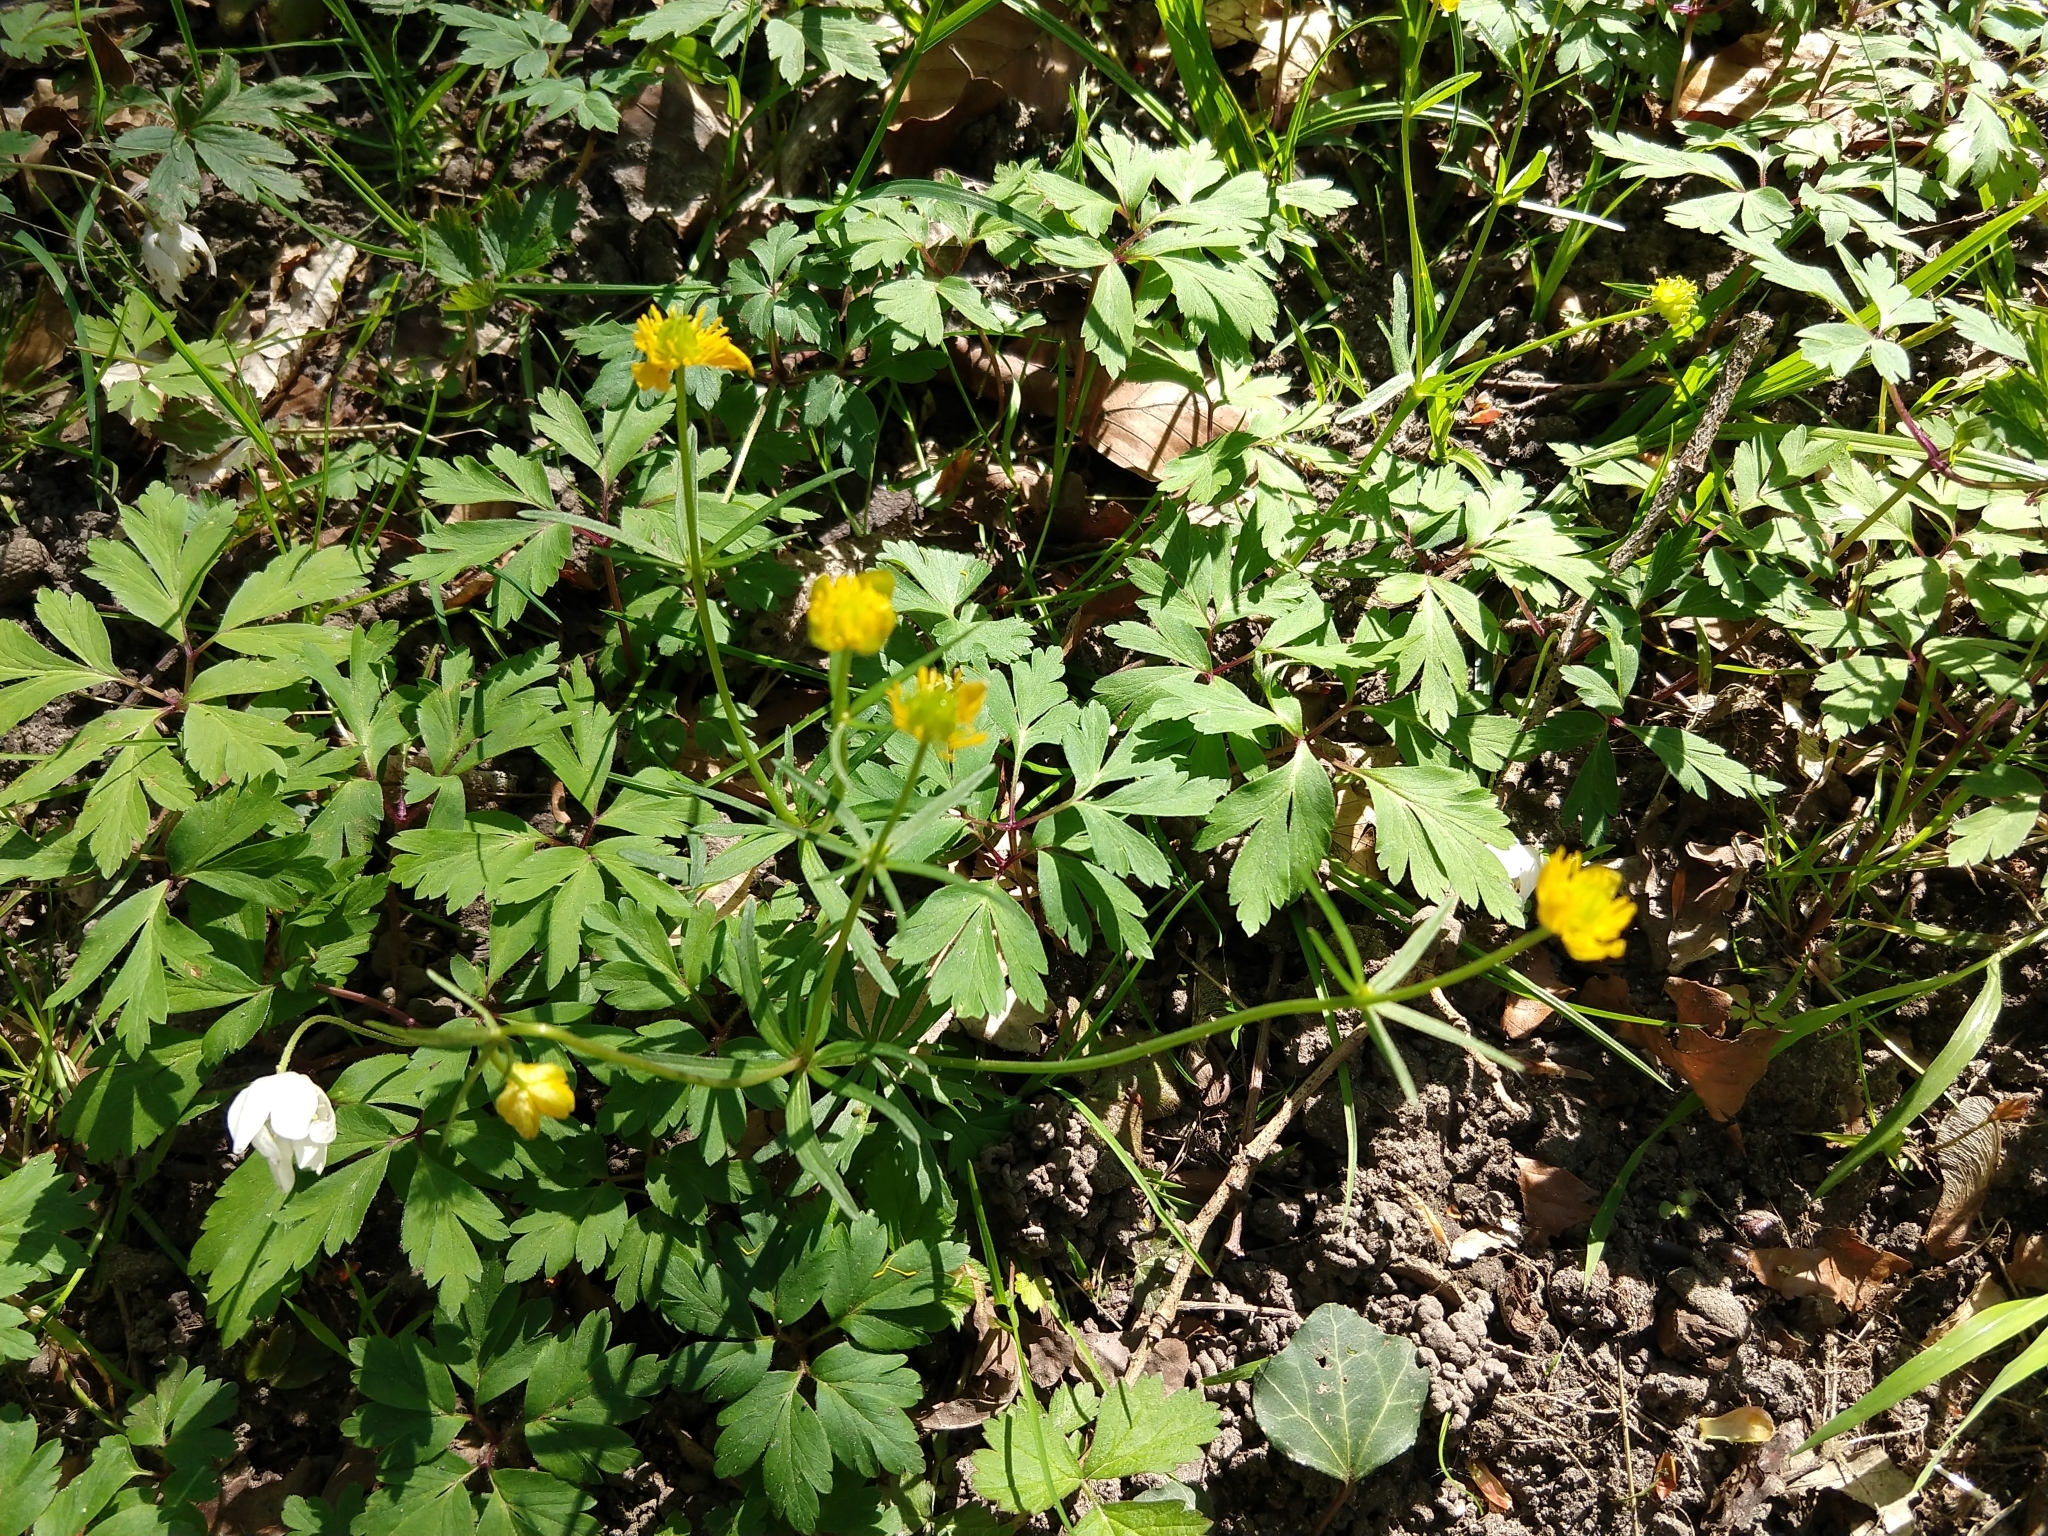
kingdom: Plantae
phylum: Tracheophyta
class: Magnoliopsida
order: Ranunculales
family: Ranunculaceae
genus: Ranunculus
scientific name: Ranunculus auricomus
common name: Goldilocks buttercup
